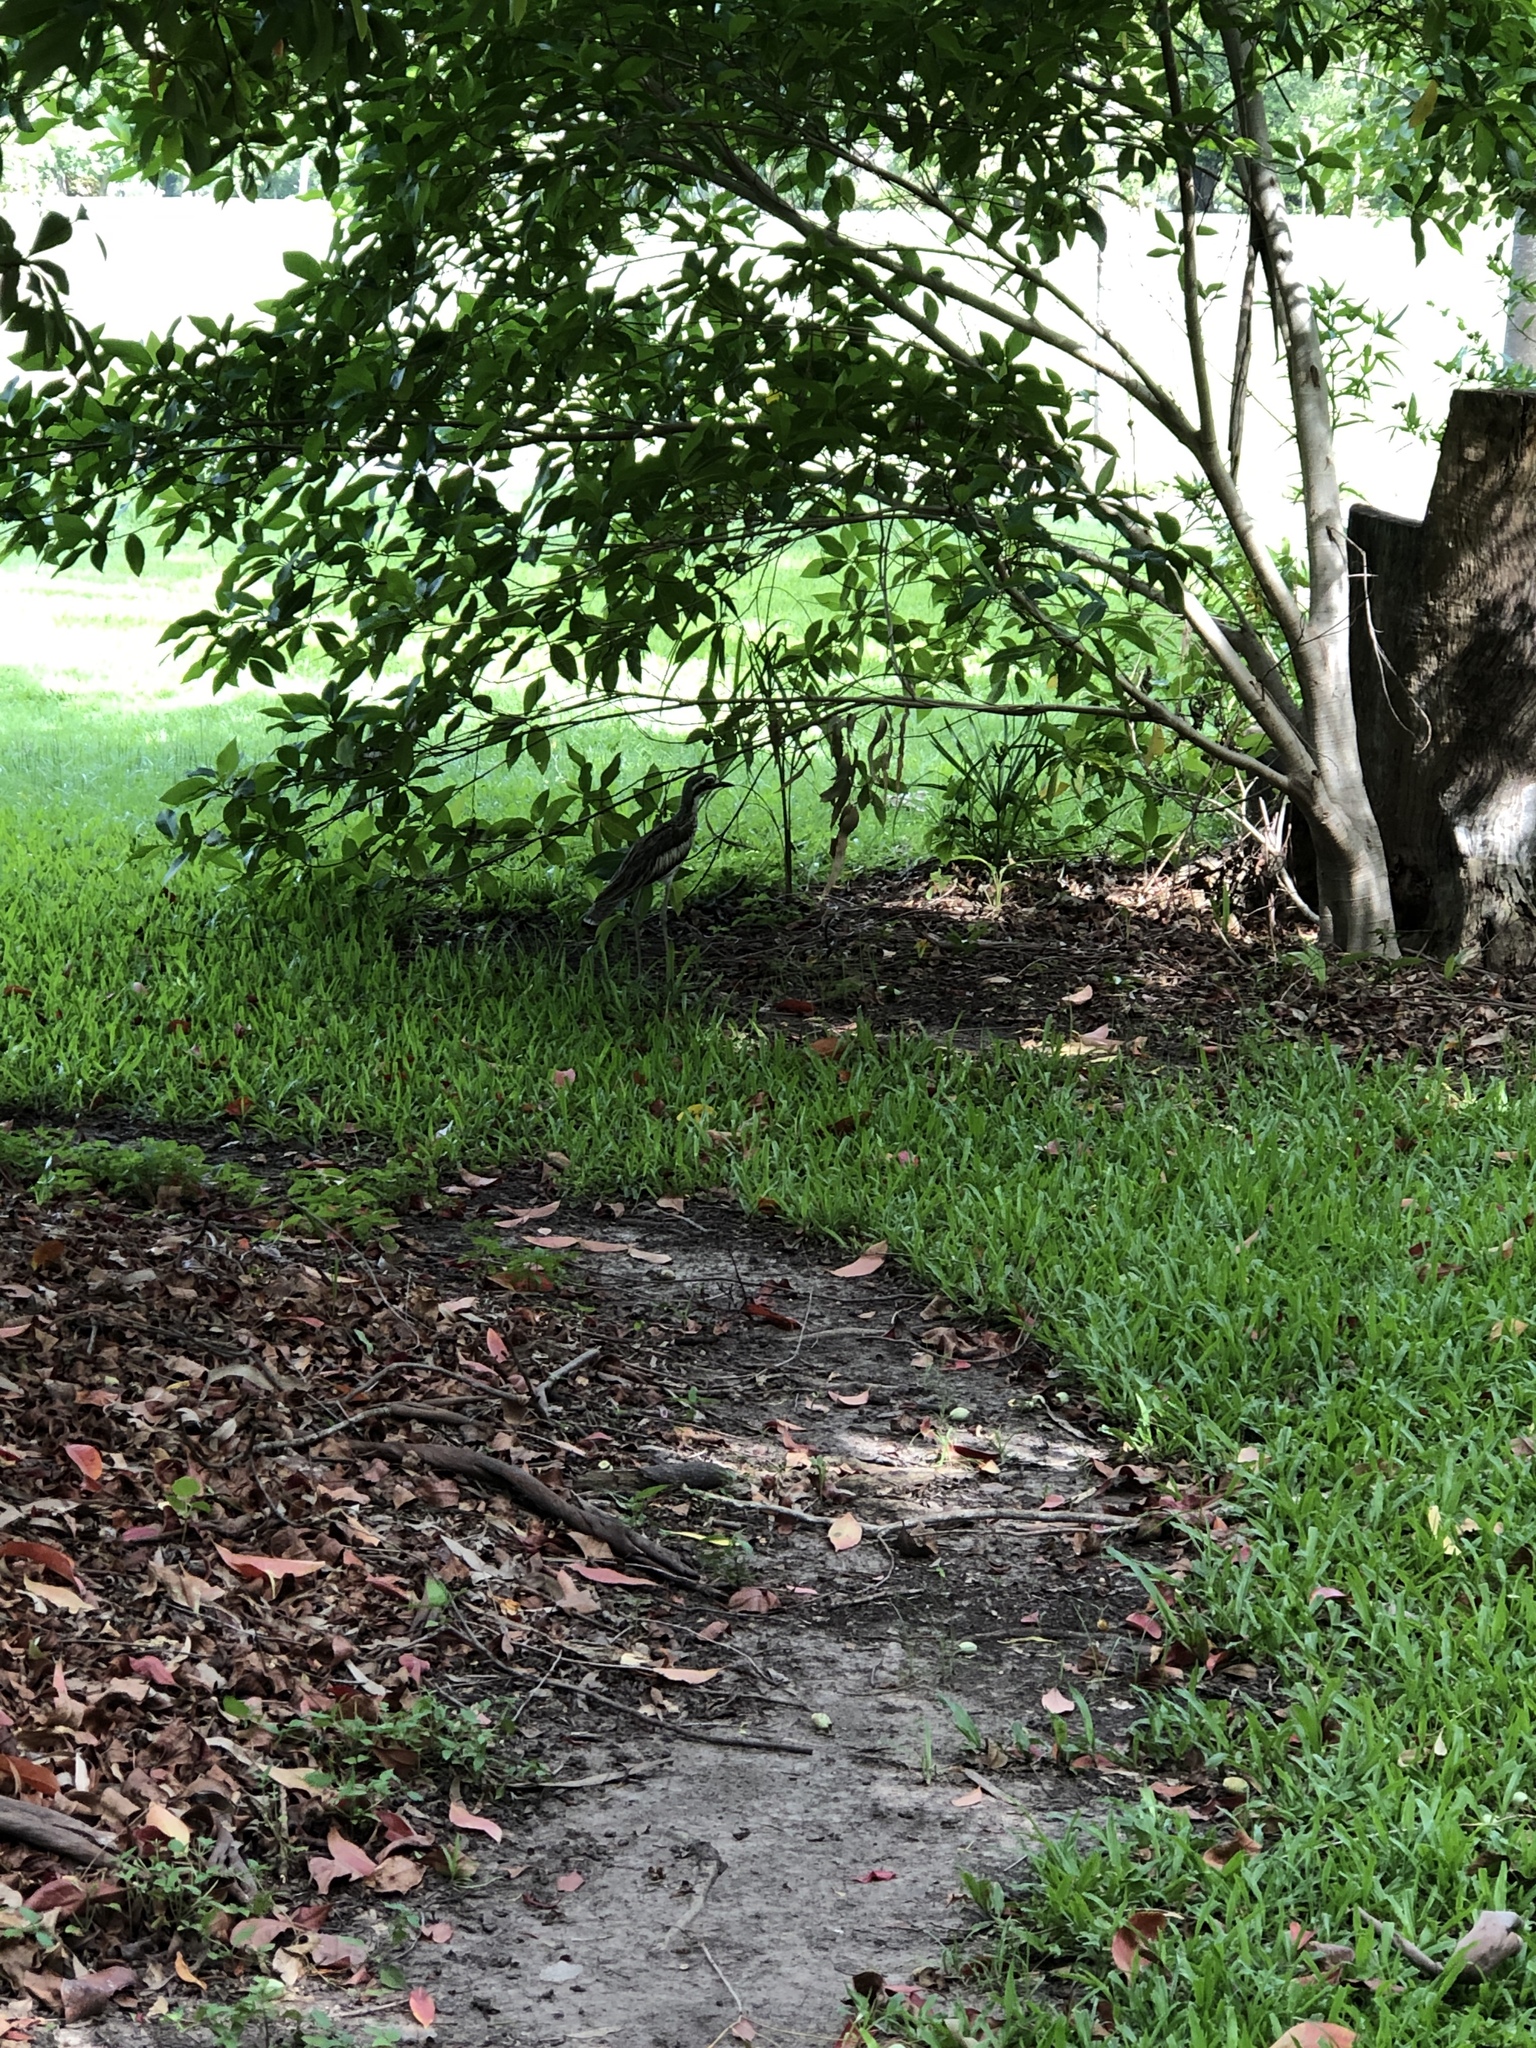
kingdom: Animalia
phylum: Chordata
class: Aves
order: Charadriiformes
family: Burhinidae
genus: Burhinus
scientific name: Burhinus grallarius
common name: Bush stone-curlew
